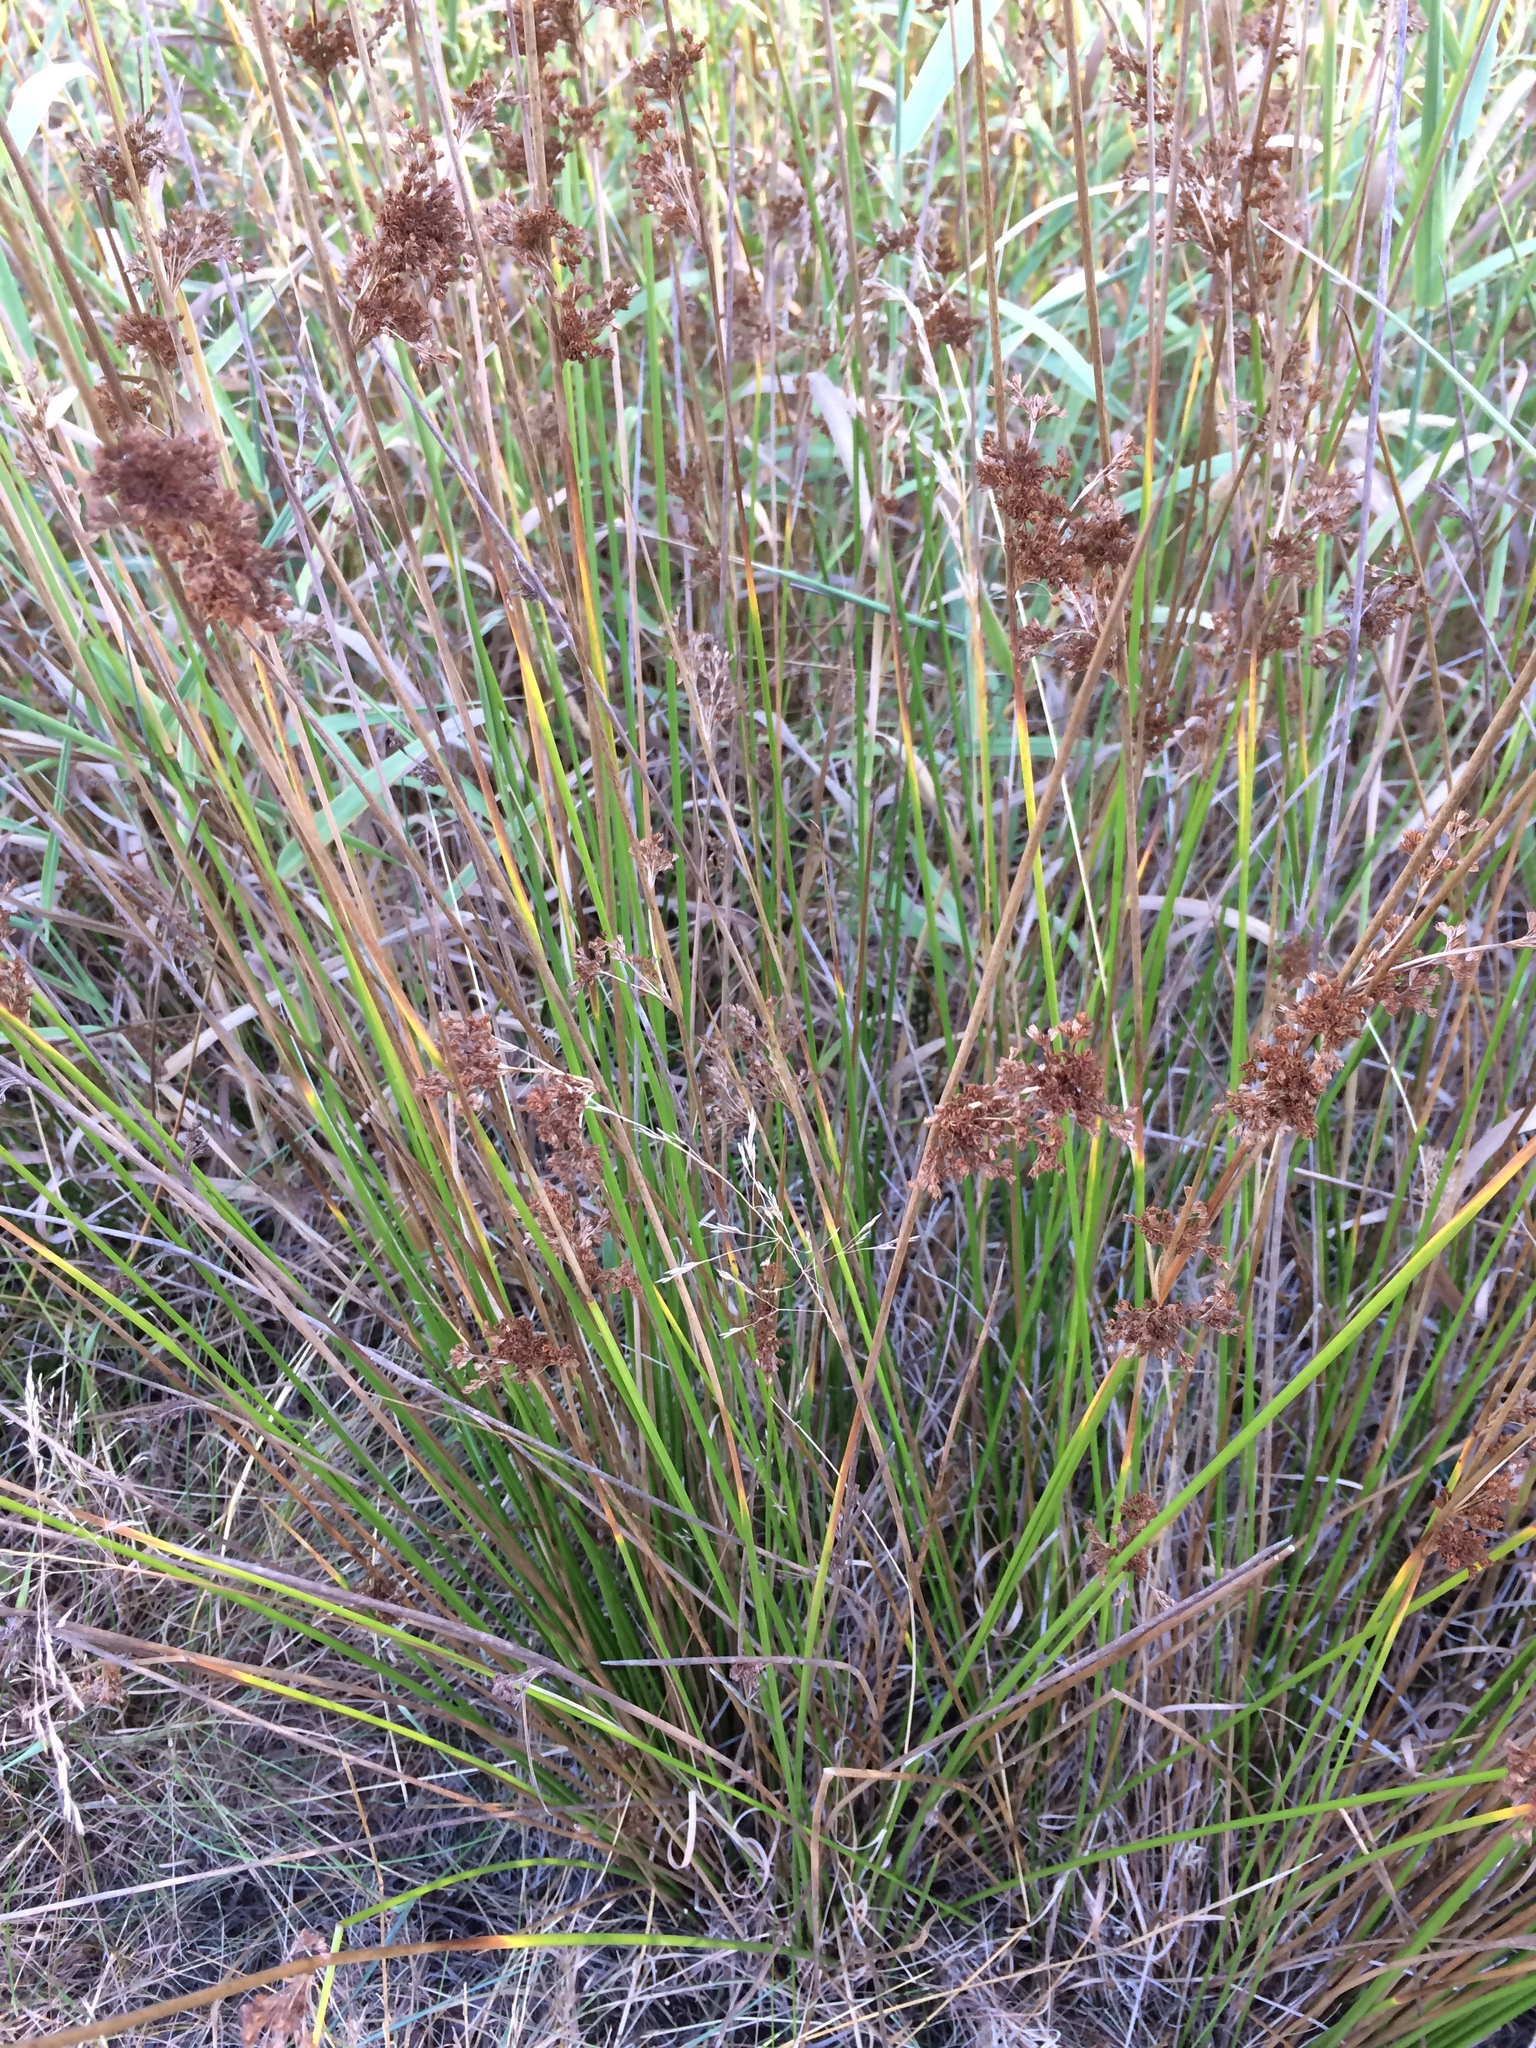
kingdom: Plantae
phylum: Tracheophyta
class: Liliopsida
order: Poales
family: Juncaceae
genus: Juncus
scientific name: Juncus effusus
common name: Soft rush
